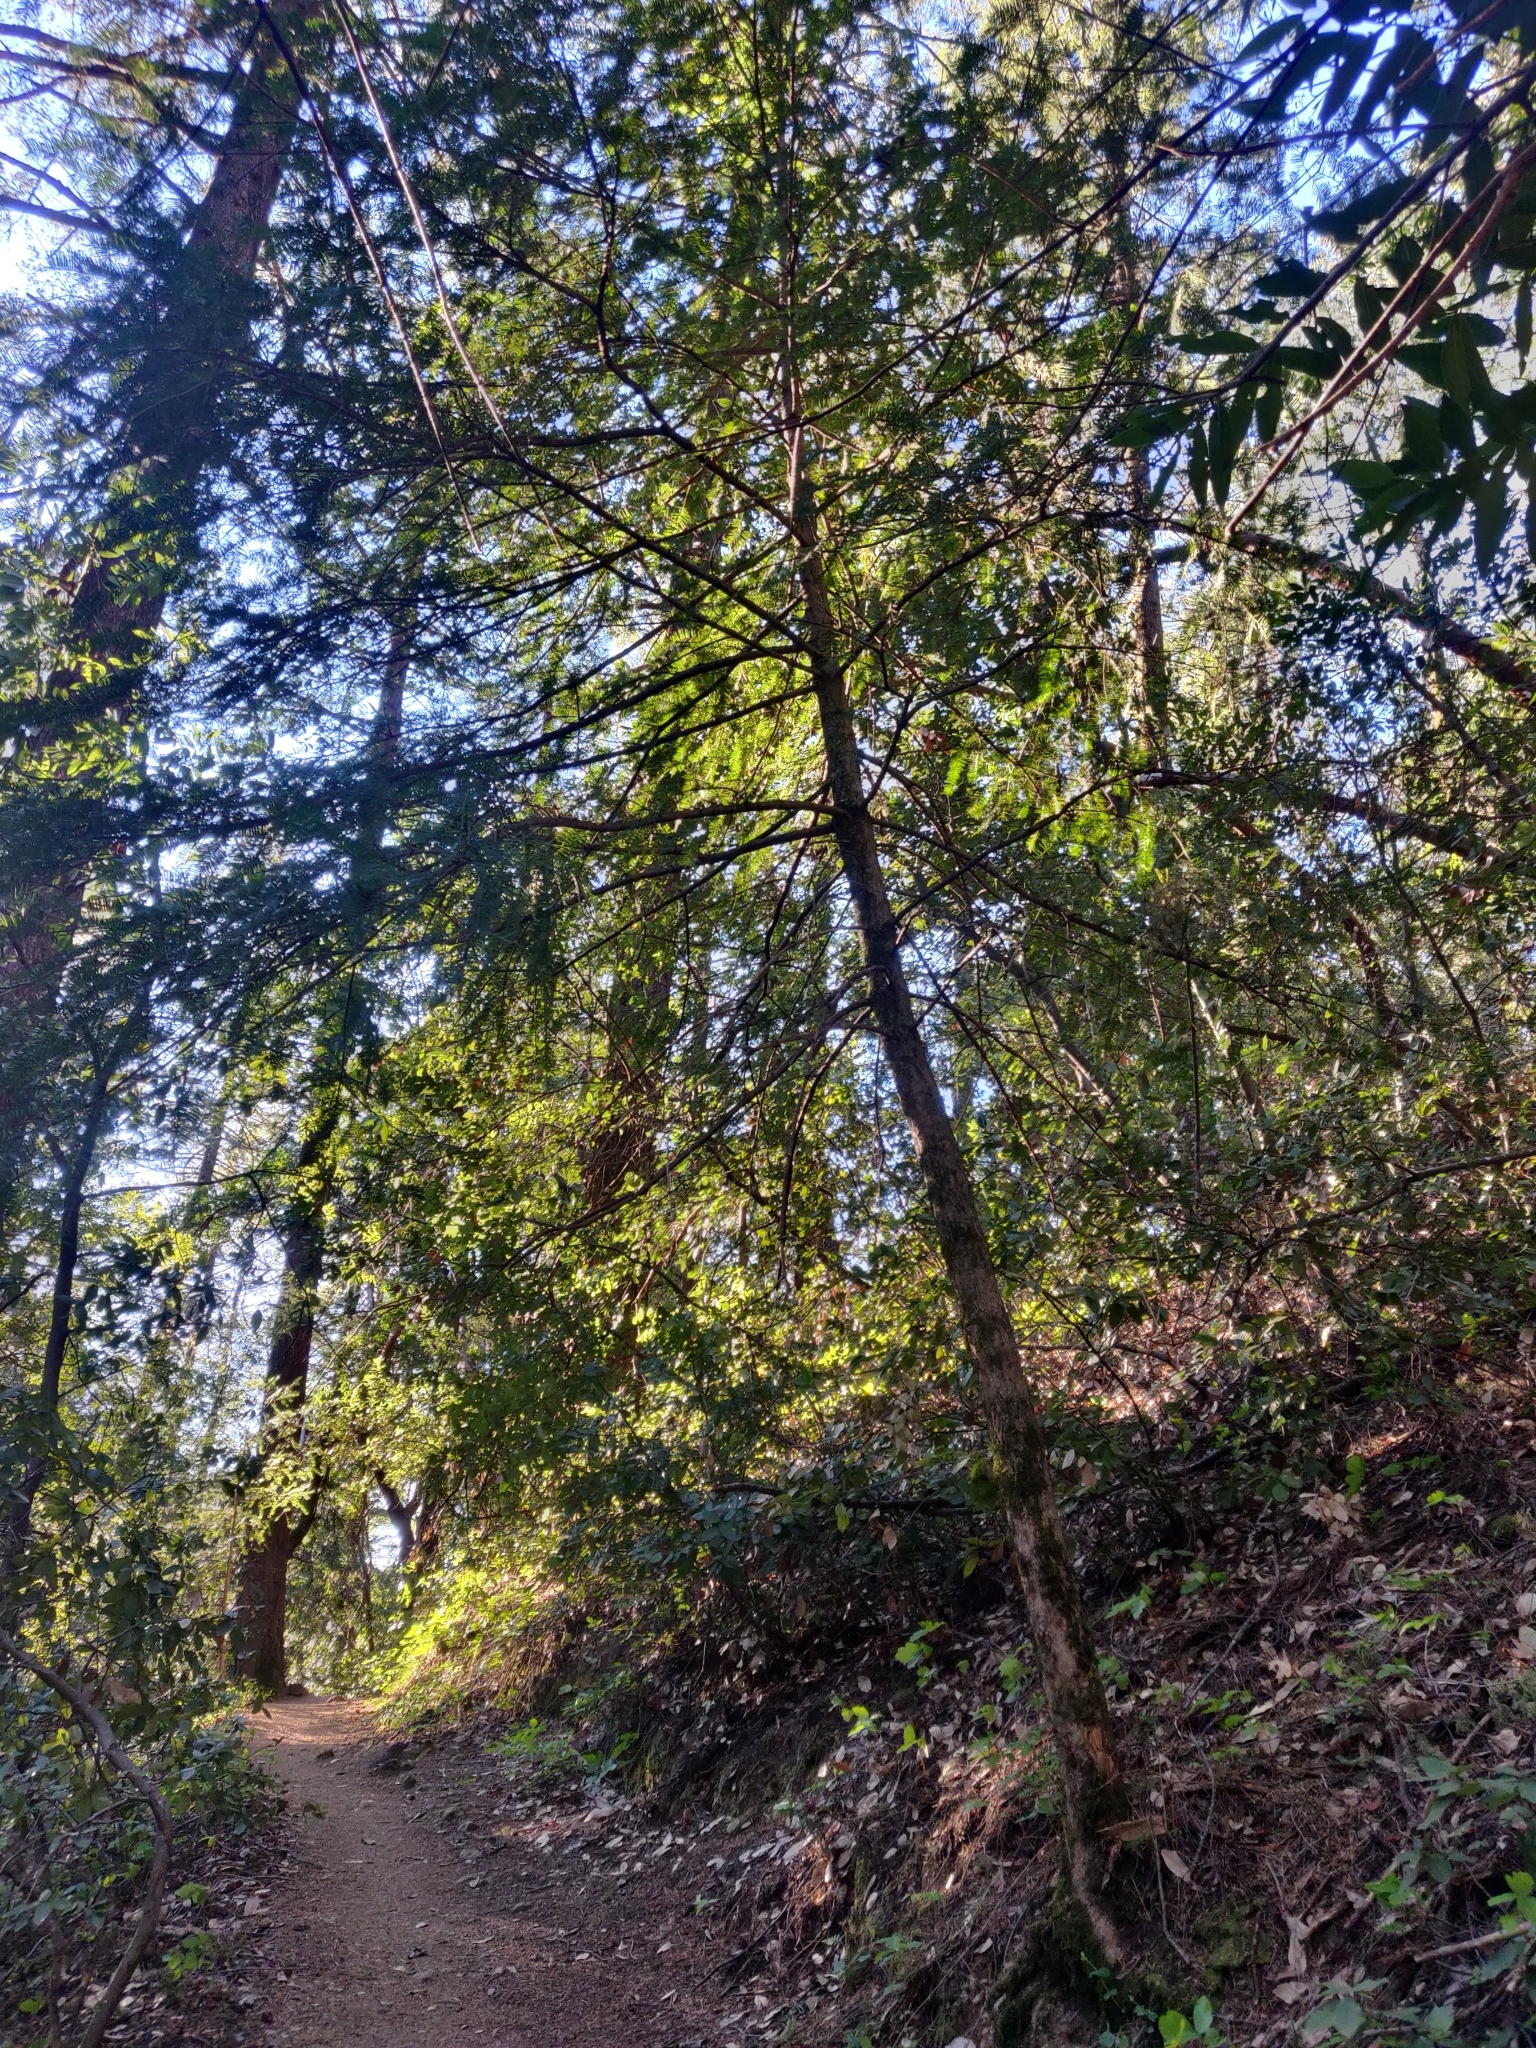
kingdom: Plantae
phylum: Tracheophyta
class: Pinopsida
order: Pinales
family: Taxaceae
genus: Torreya
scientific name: Torreya californica
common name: California torreya
